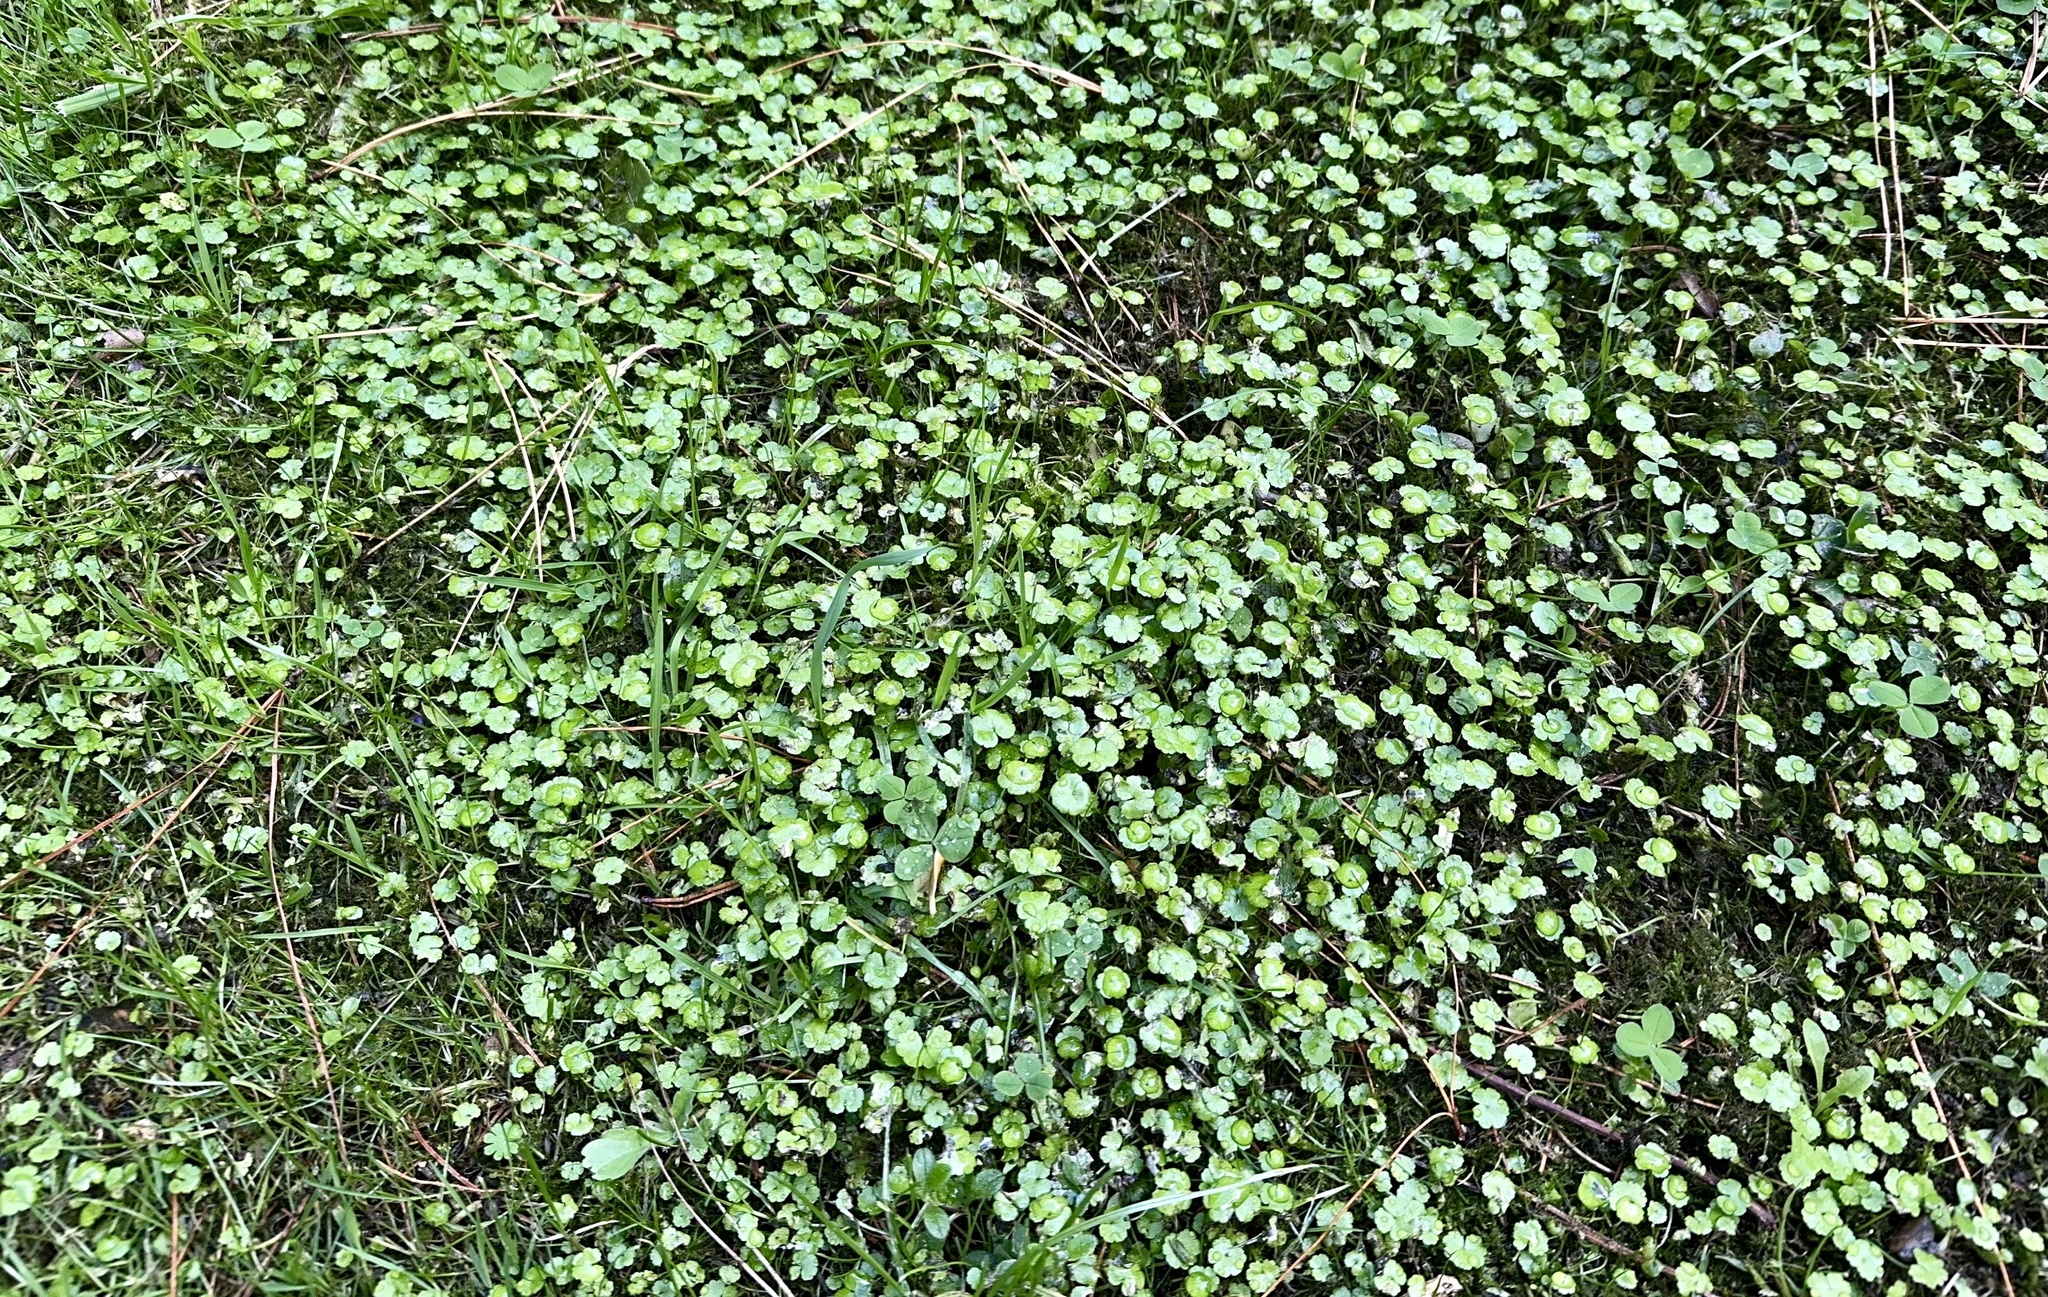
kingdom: Plantae
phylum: Tracheophyta
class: Magnoliopsida
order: Apiales
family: Araliaceae
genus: Hydrocotyle
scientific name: Hydrocotyle heteromeria
